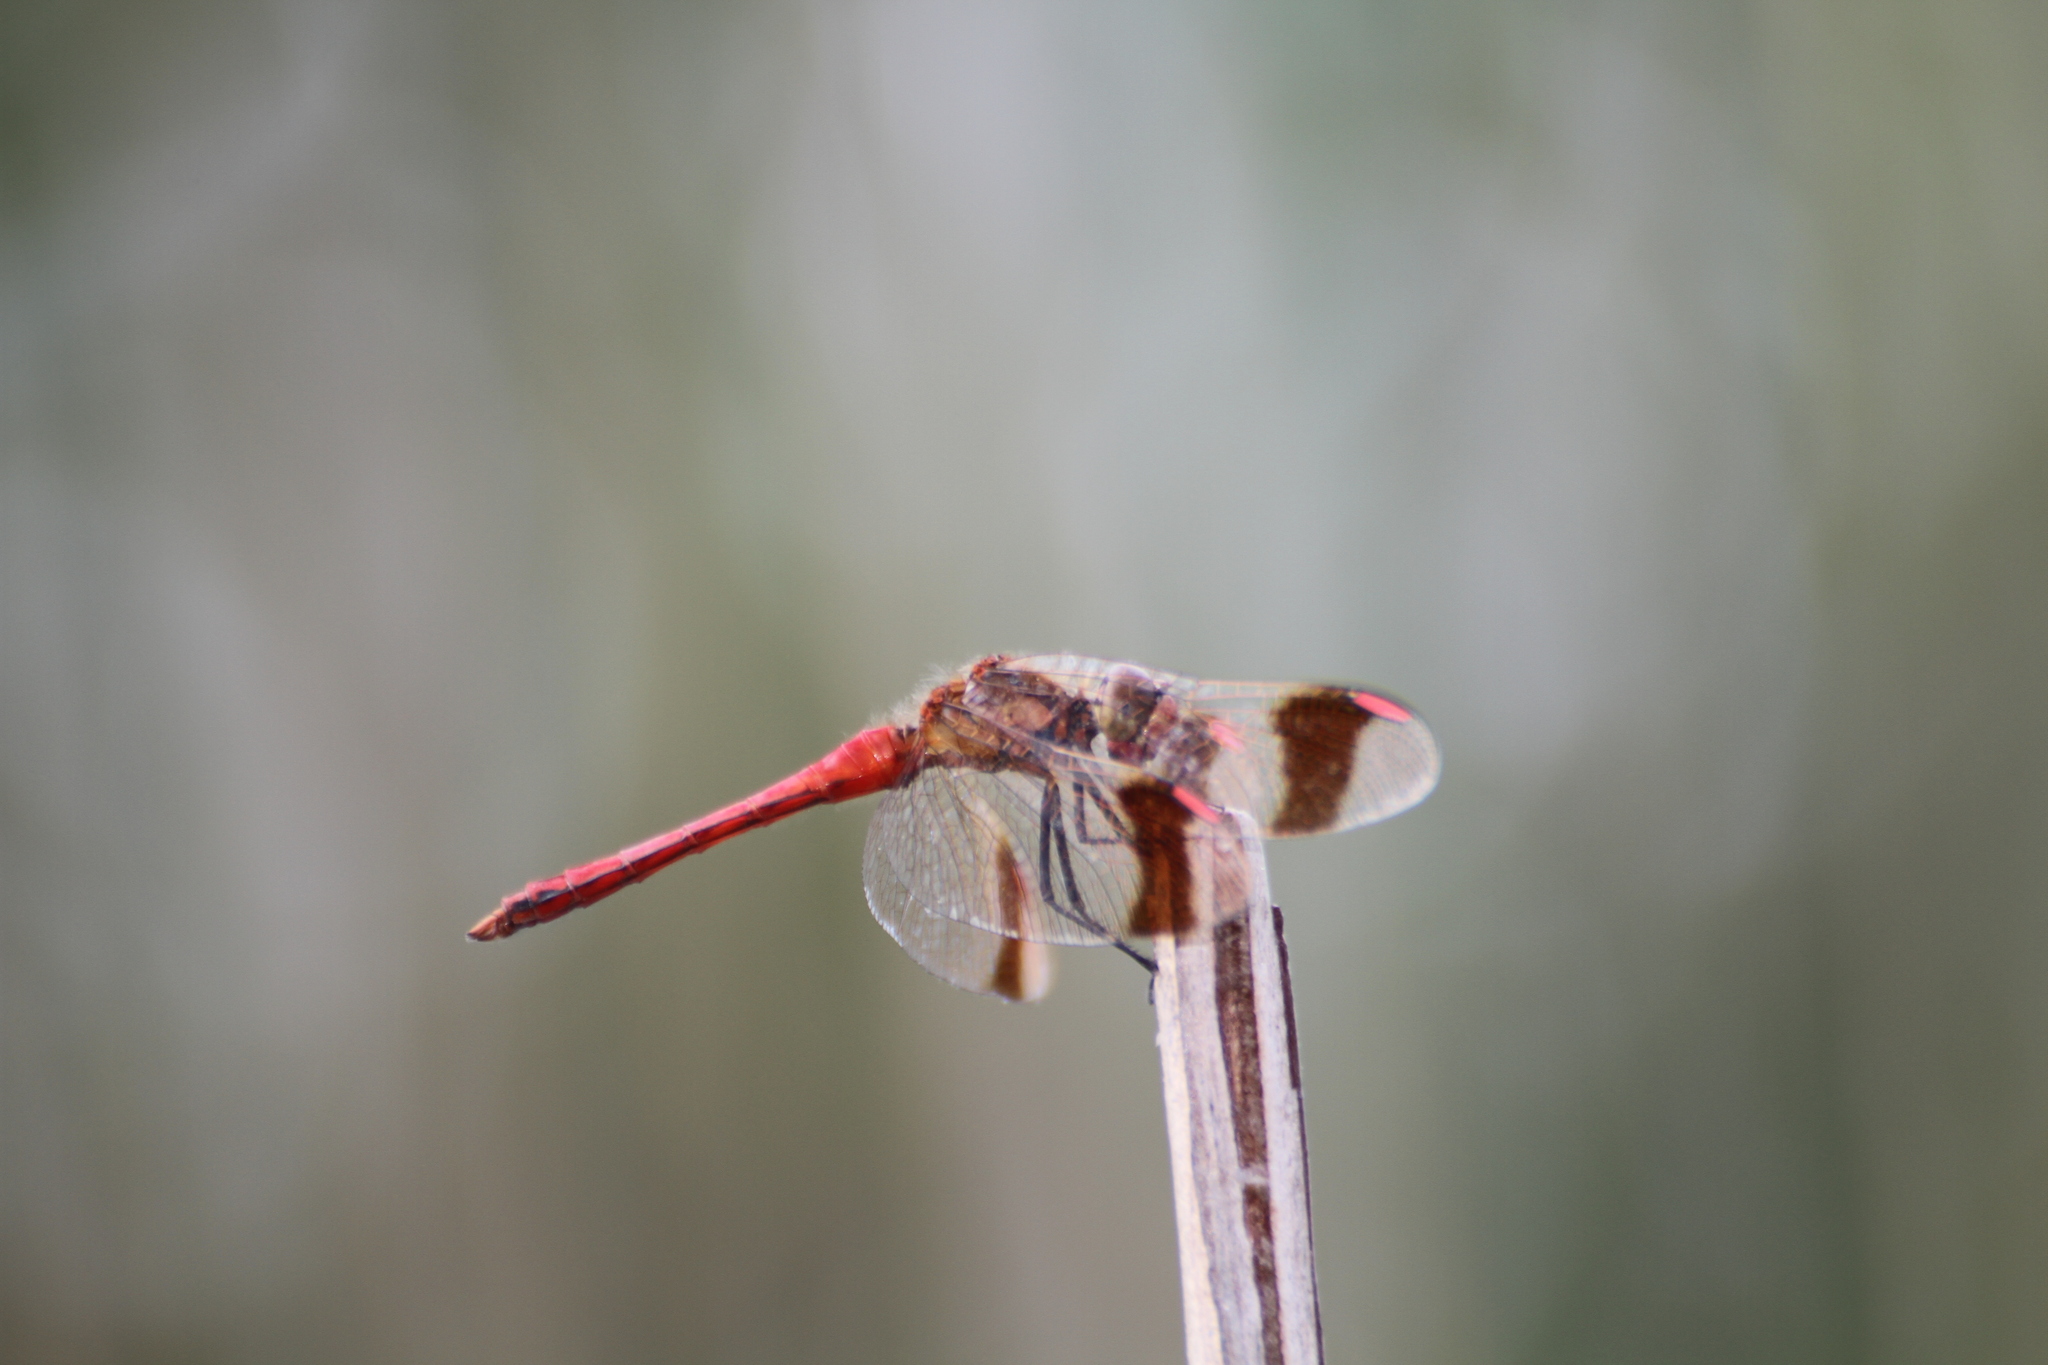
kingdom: Animalia
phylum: Arthropoda
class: Insecta
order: Odonata
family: Libellulidae
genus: Sympetrum
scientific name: Sympetrum pedemontanum
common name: Banded darter
